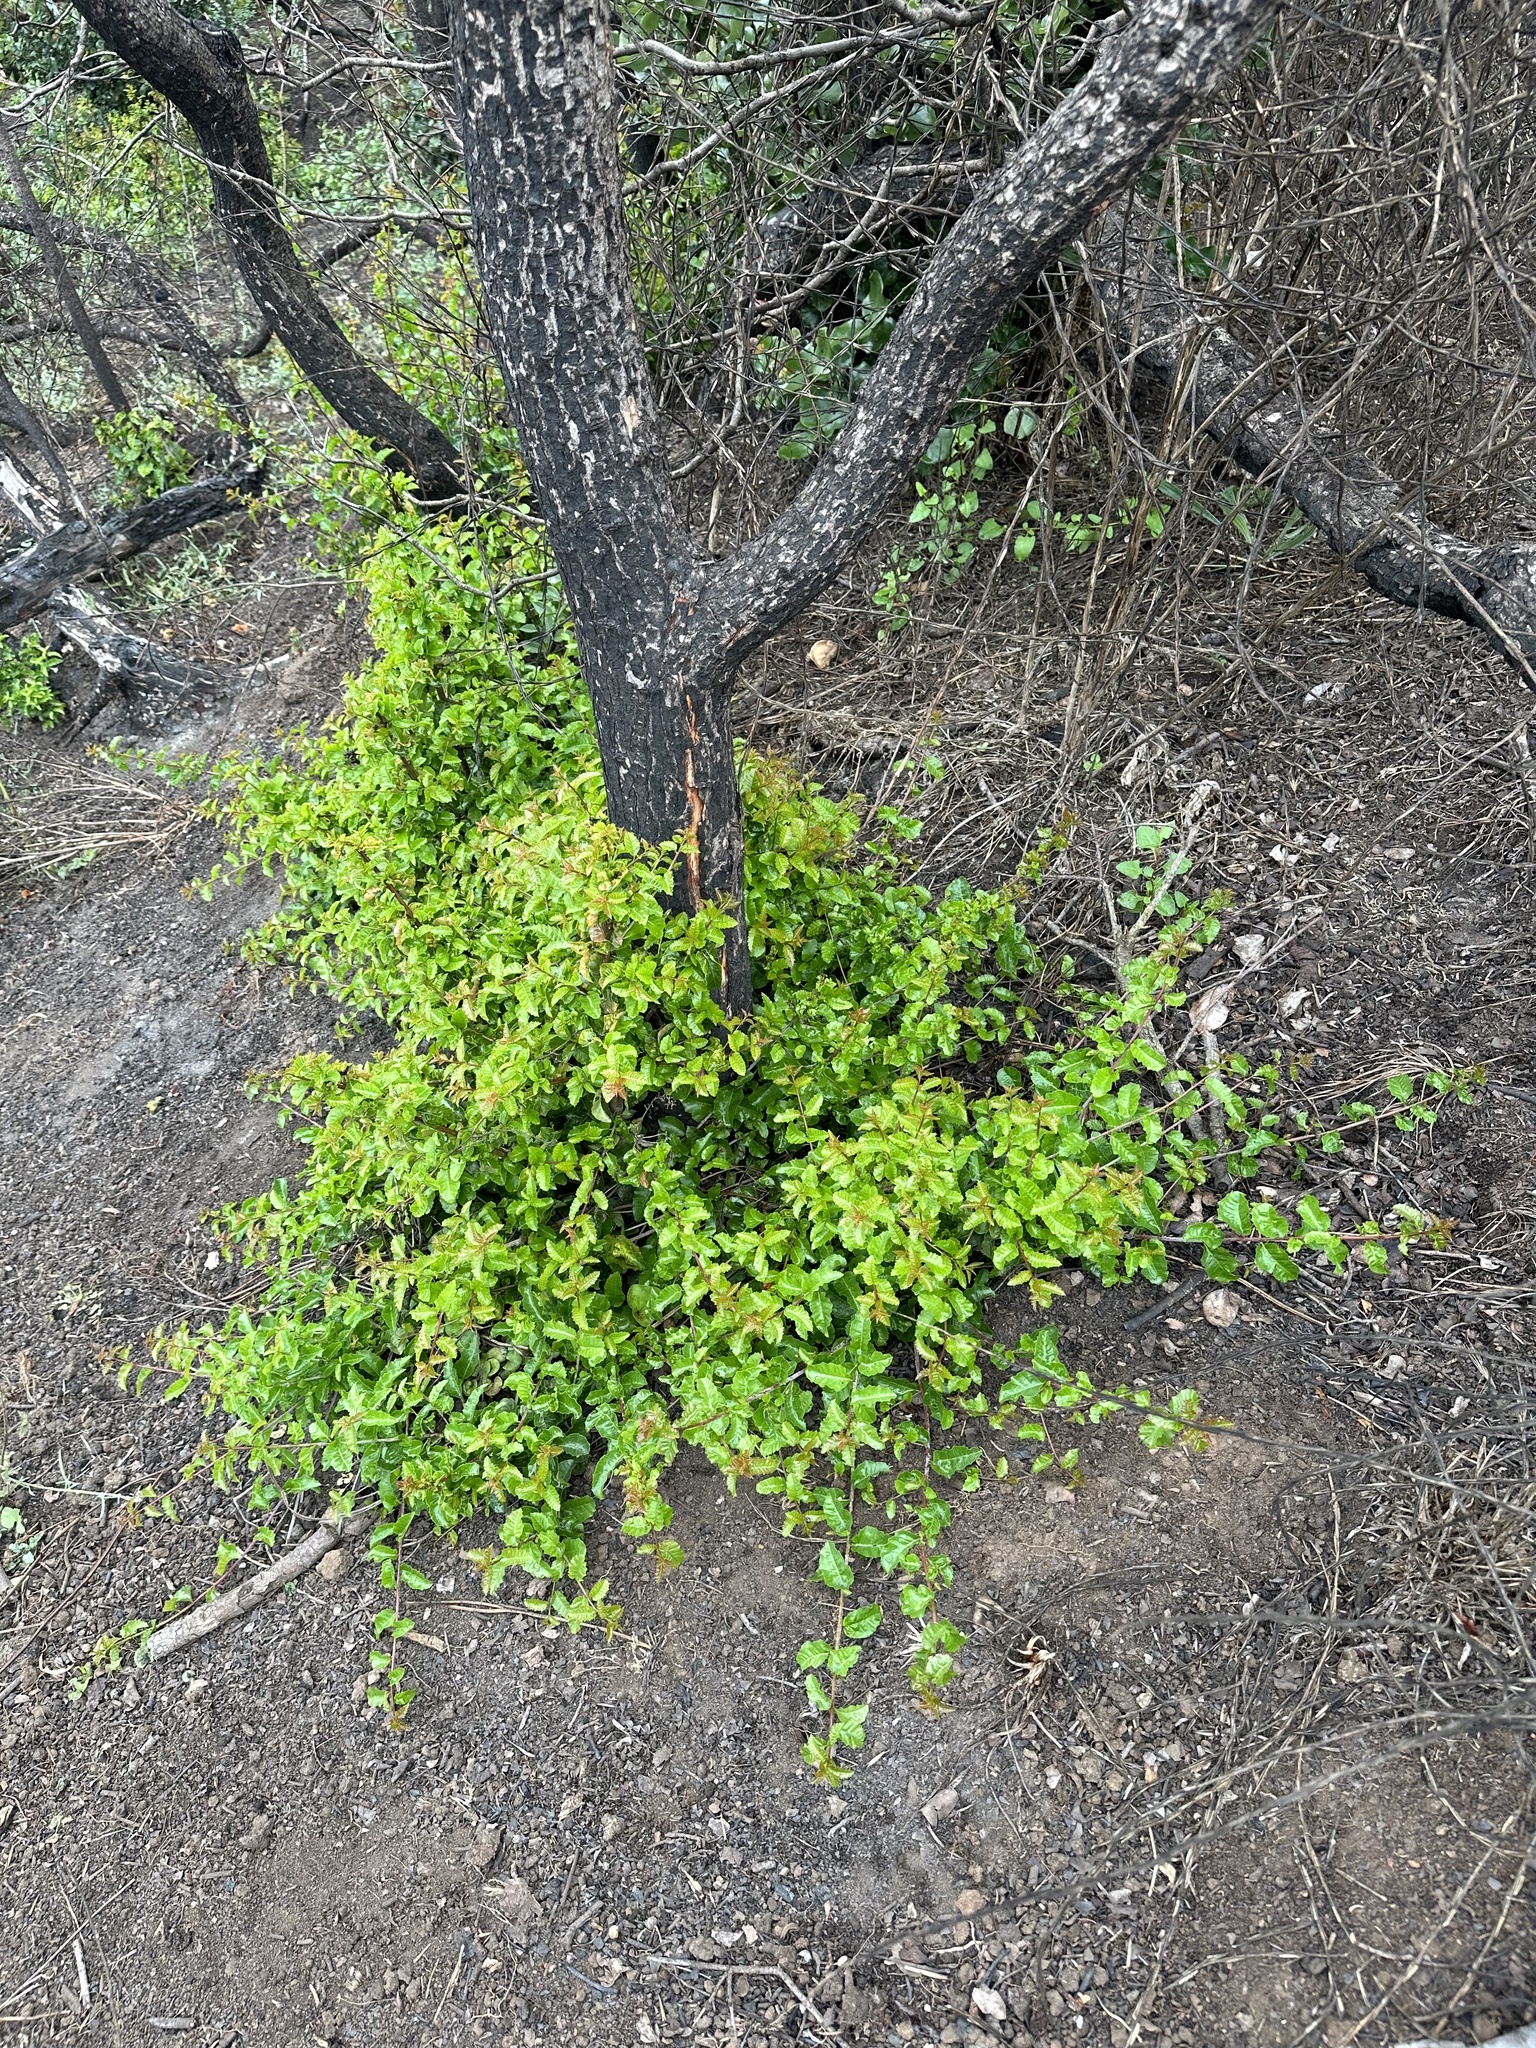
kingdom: Plantae
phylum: Tracheophyta
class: Magnoliopsida
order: Sapindales
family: Anacardiaceae
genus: Schinus
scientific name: Schinus latifolia
